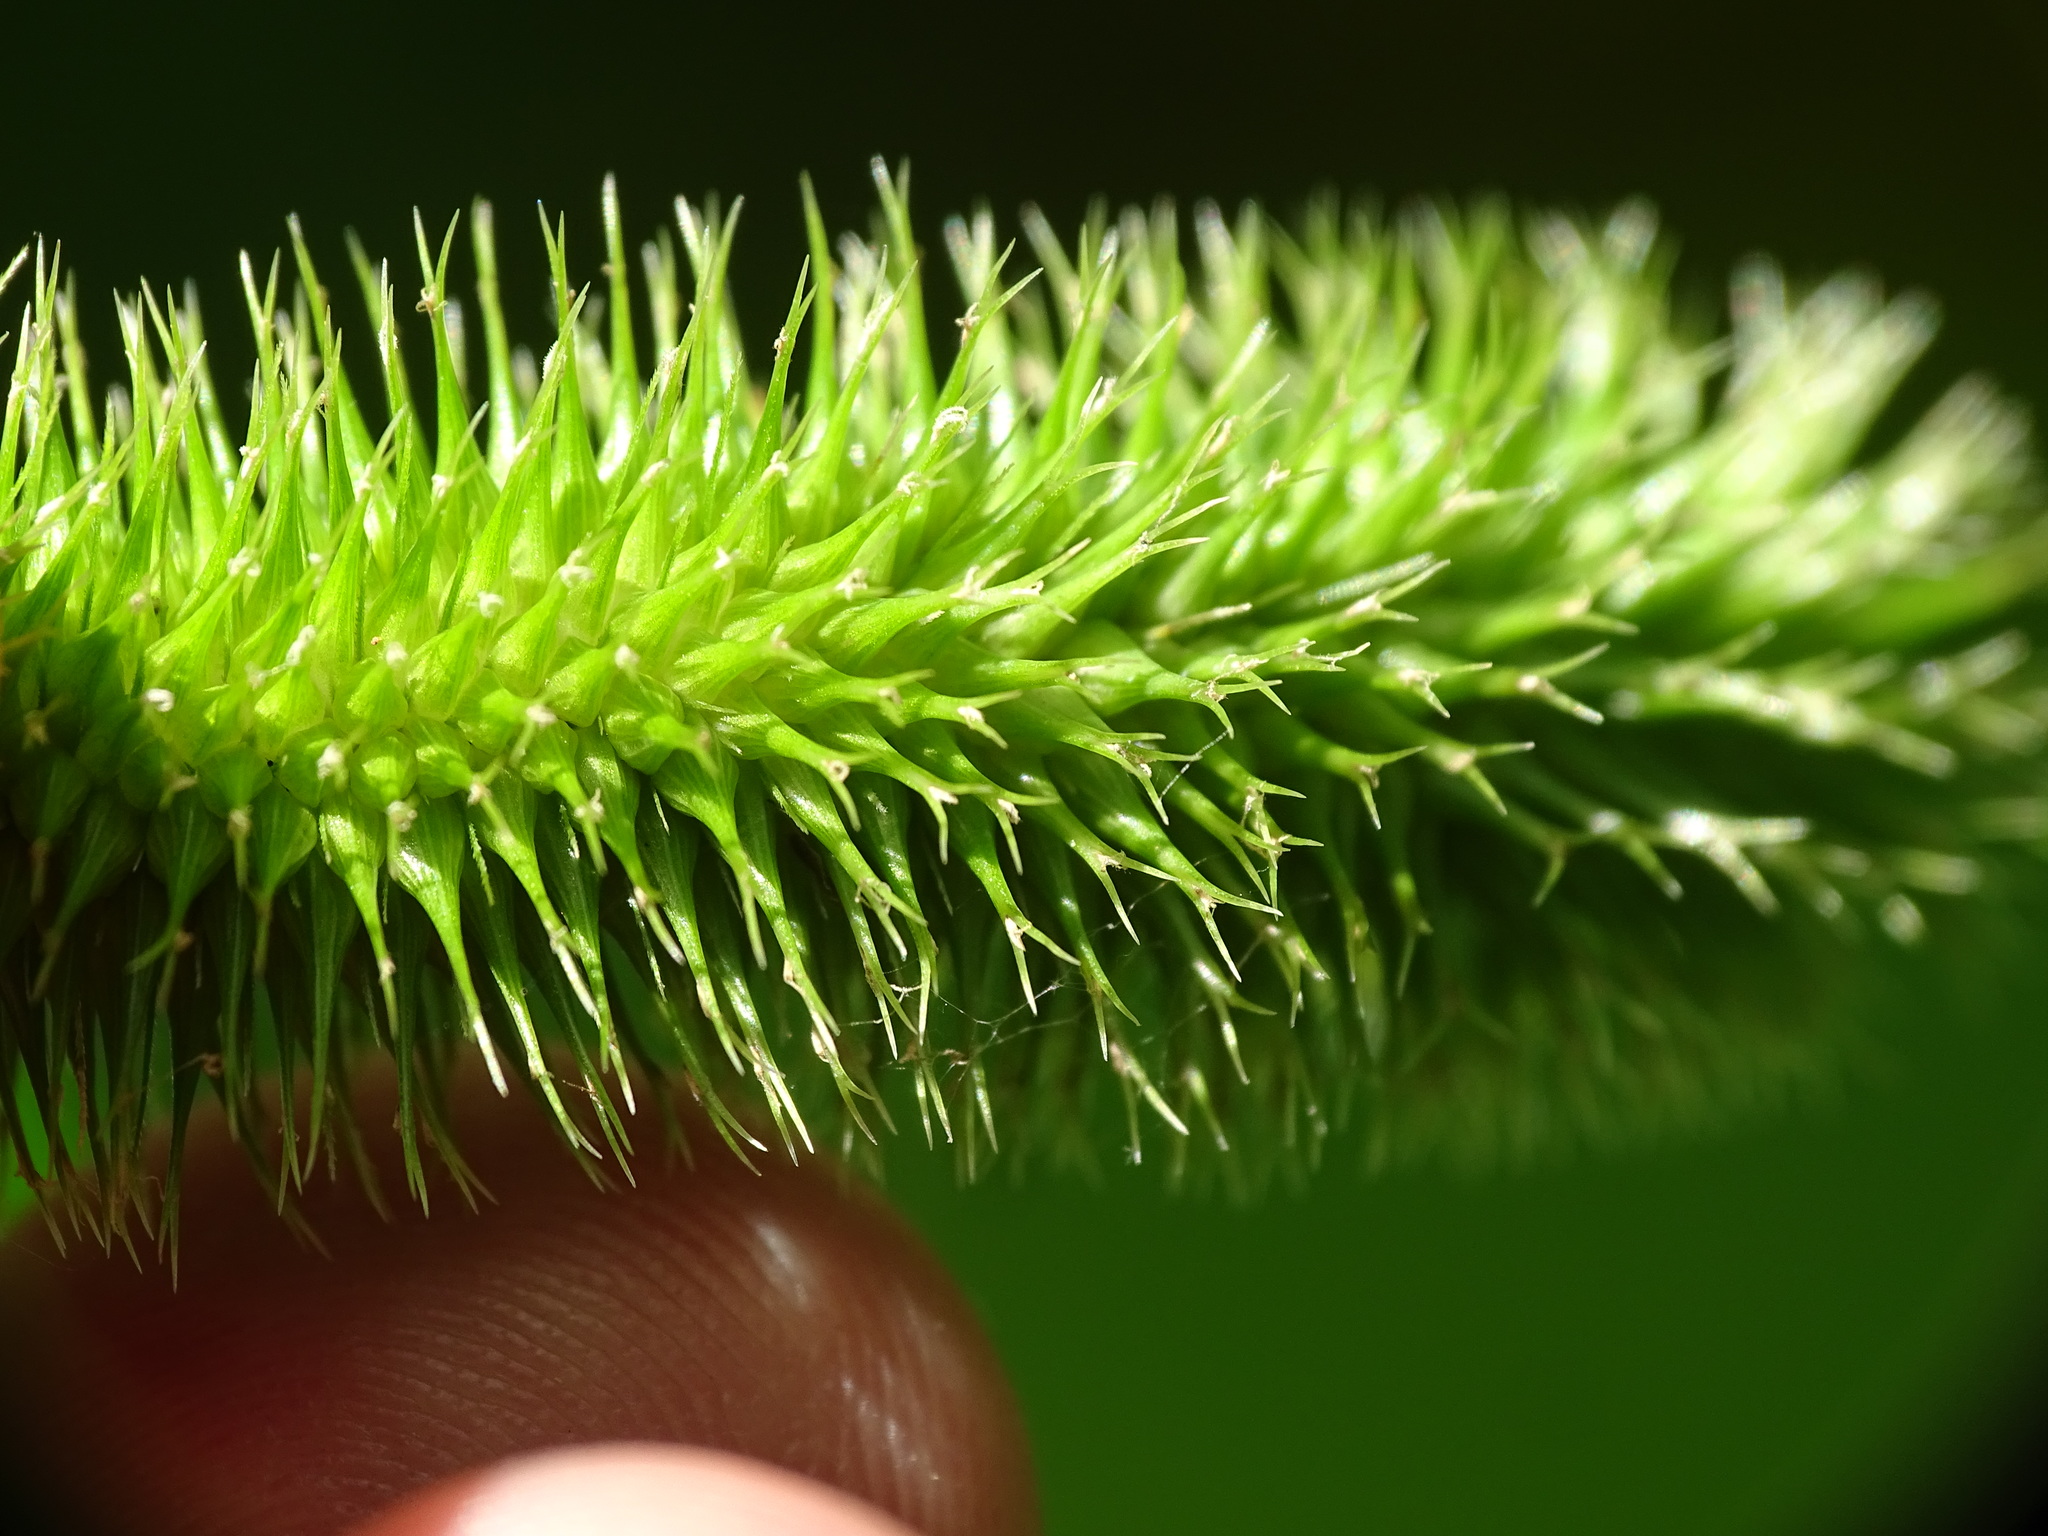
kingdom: Plantae
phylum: Tracheophyta
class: Liliopsida
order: Poales
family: Cyperaceae
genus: Carex
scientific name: Carex comosa
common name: Bristly sedge
